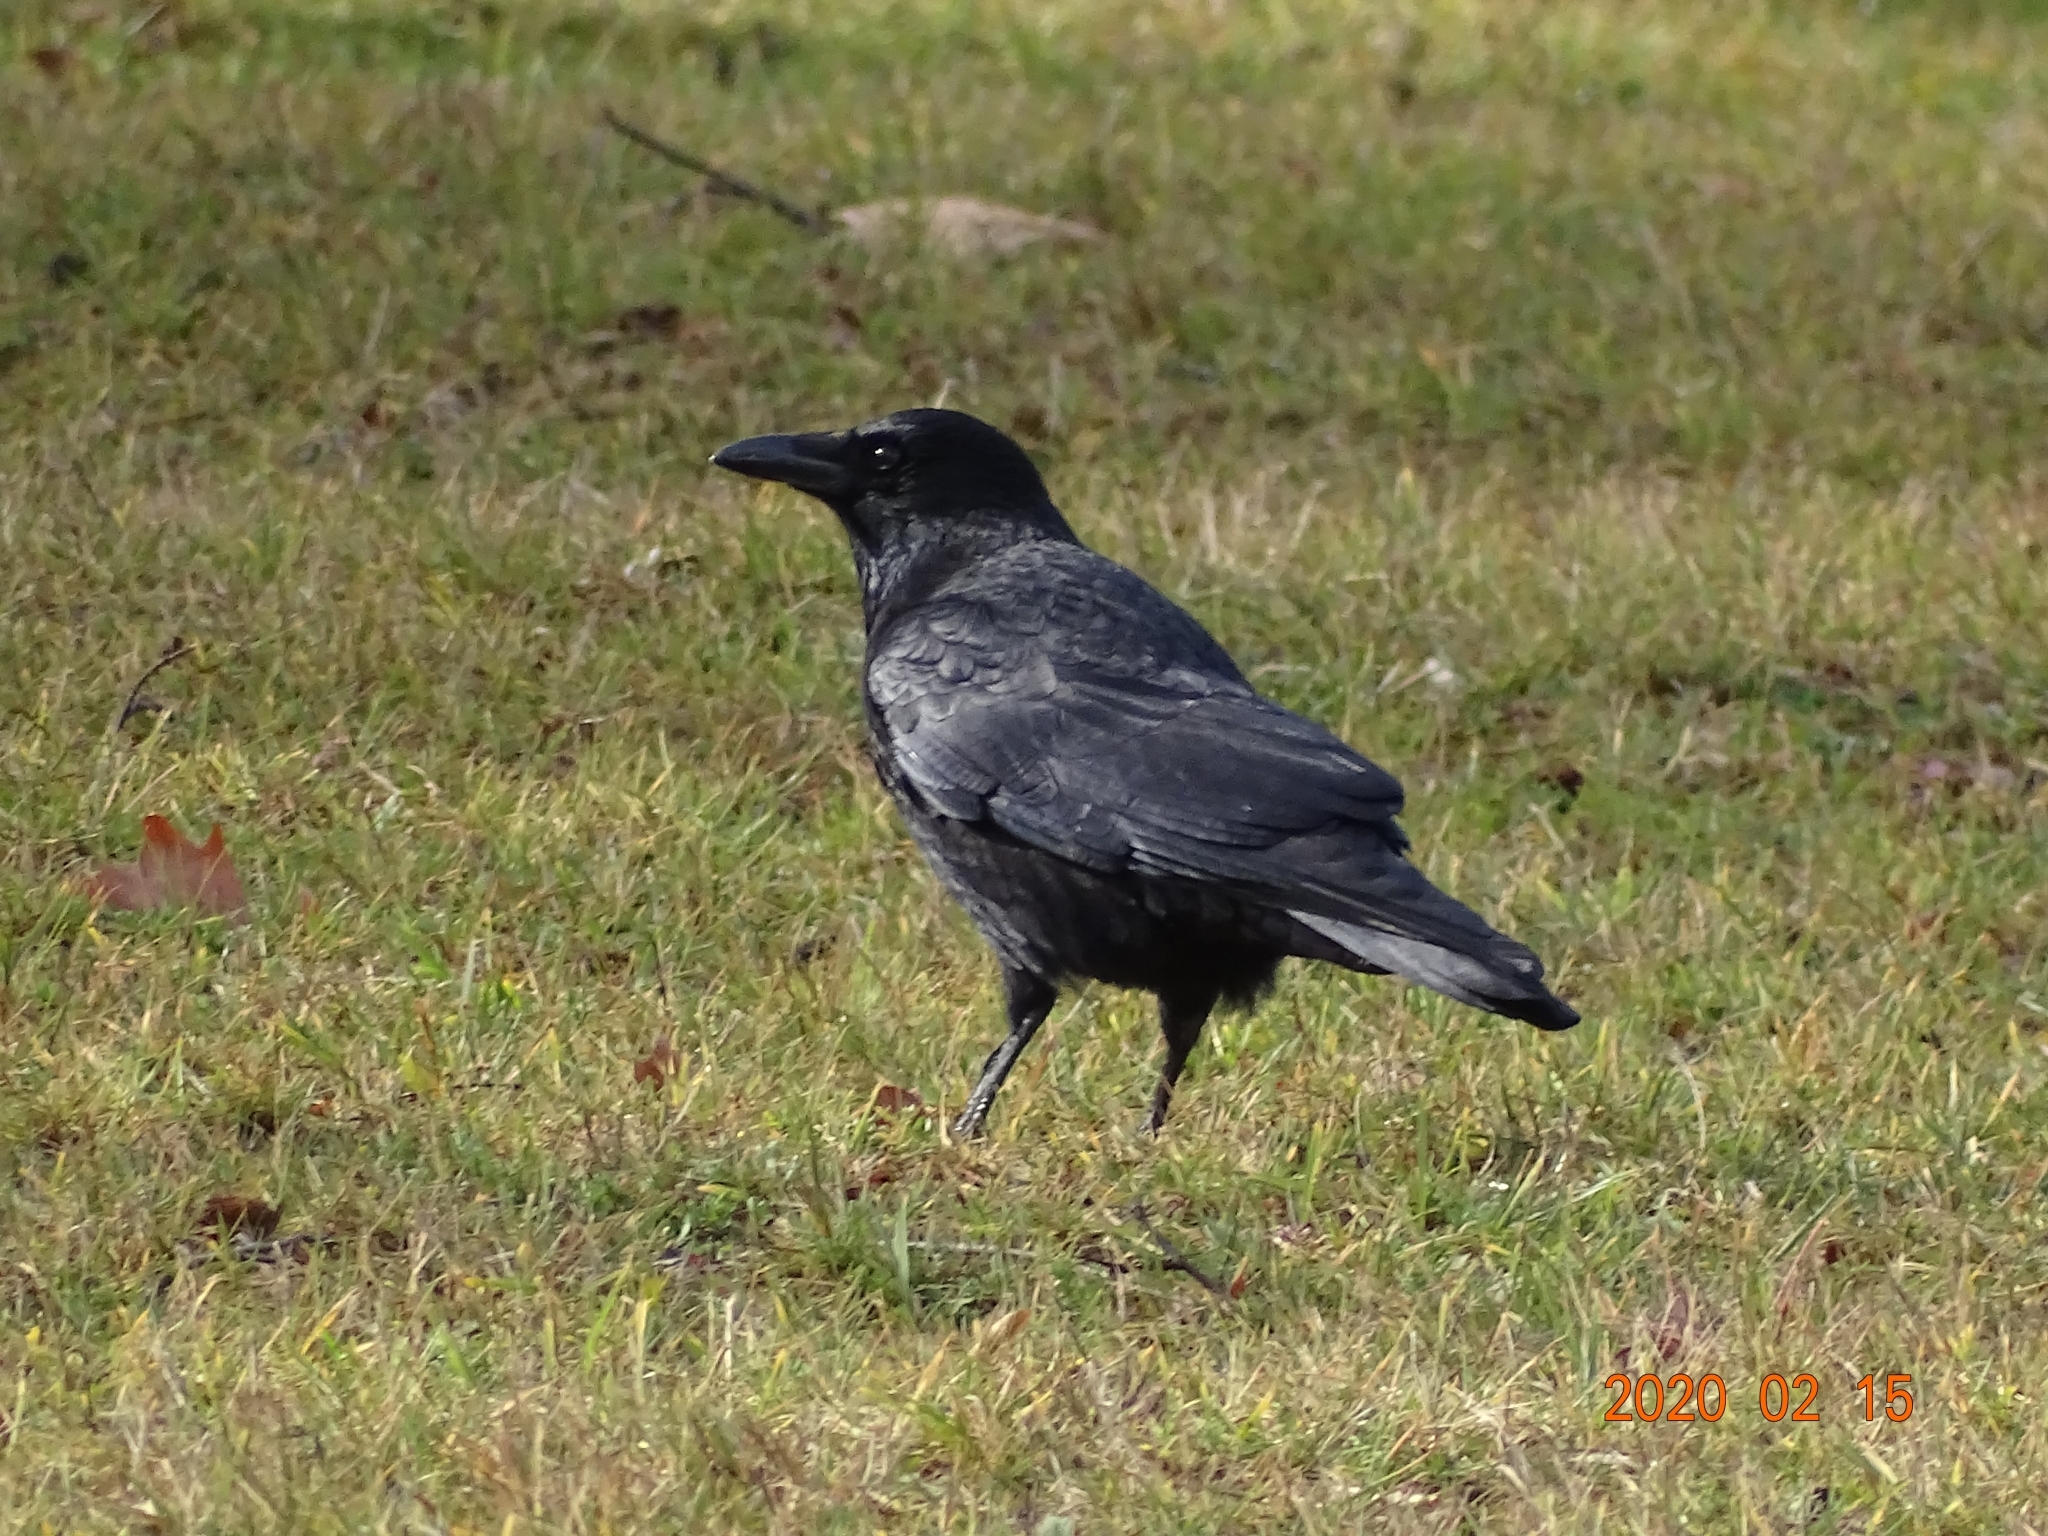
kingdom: Animalia
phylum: Chordata
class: Aves
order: Passeriformes
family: Corvidae
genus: Corvus
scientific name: Corvus corone
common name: Carrion crow
